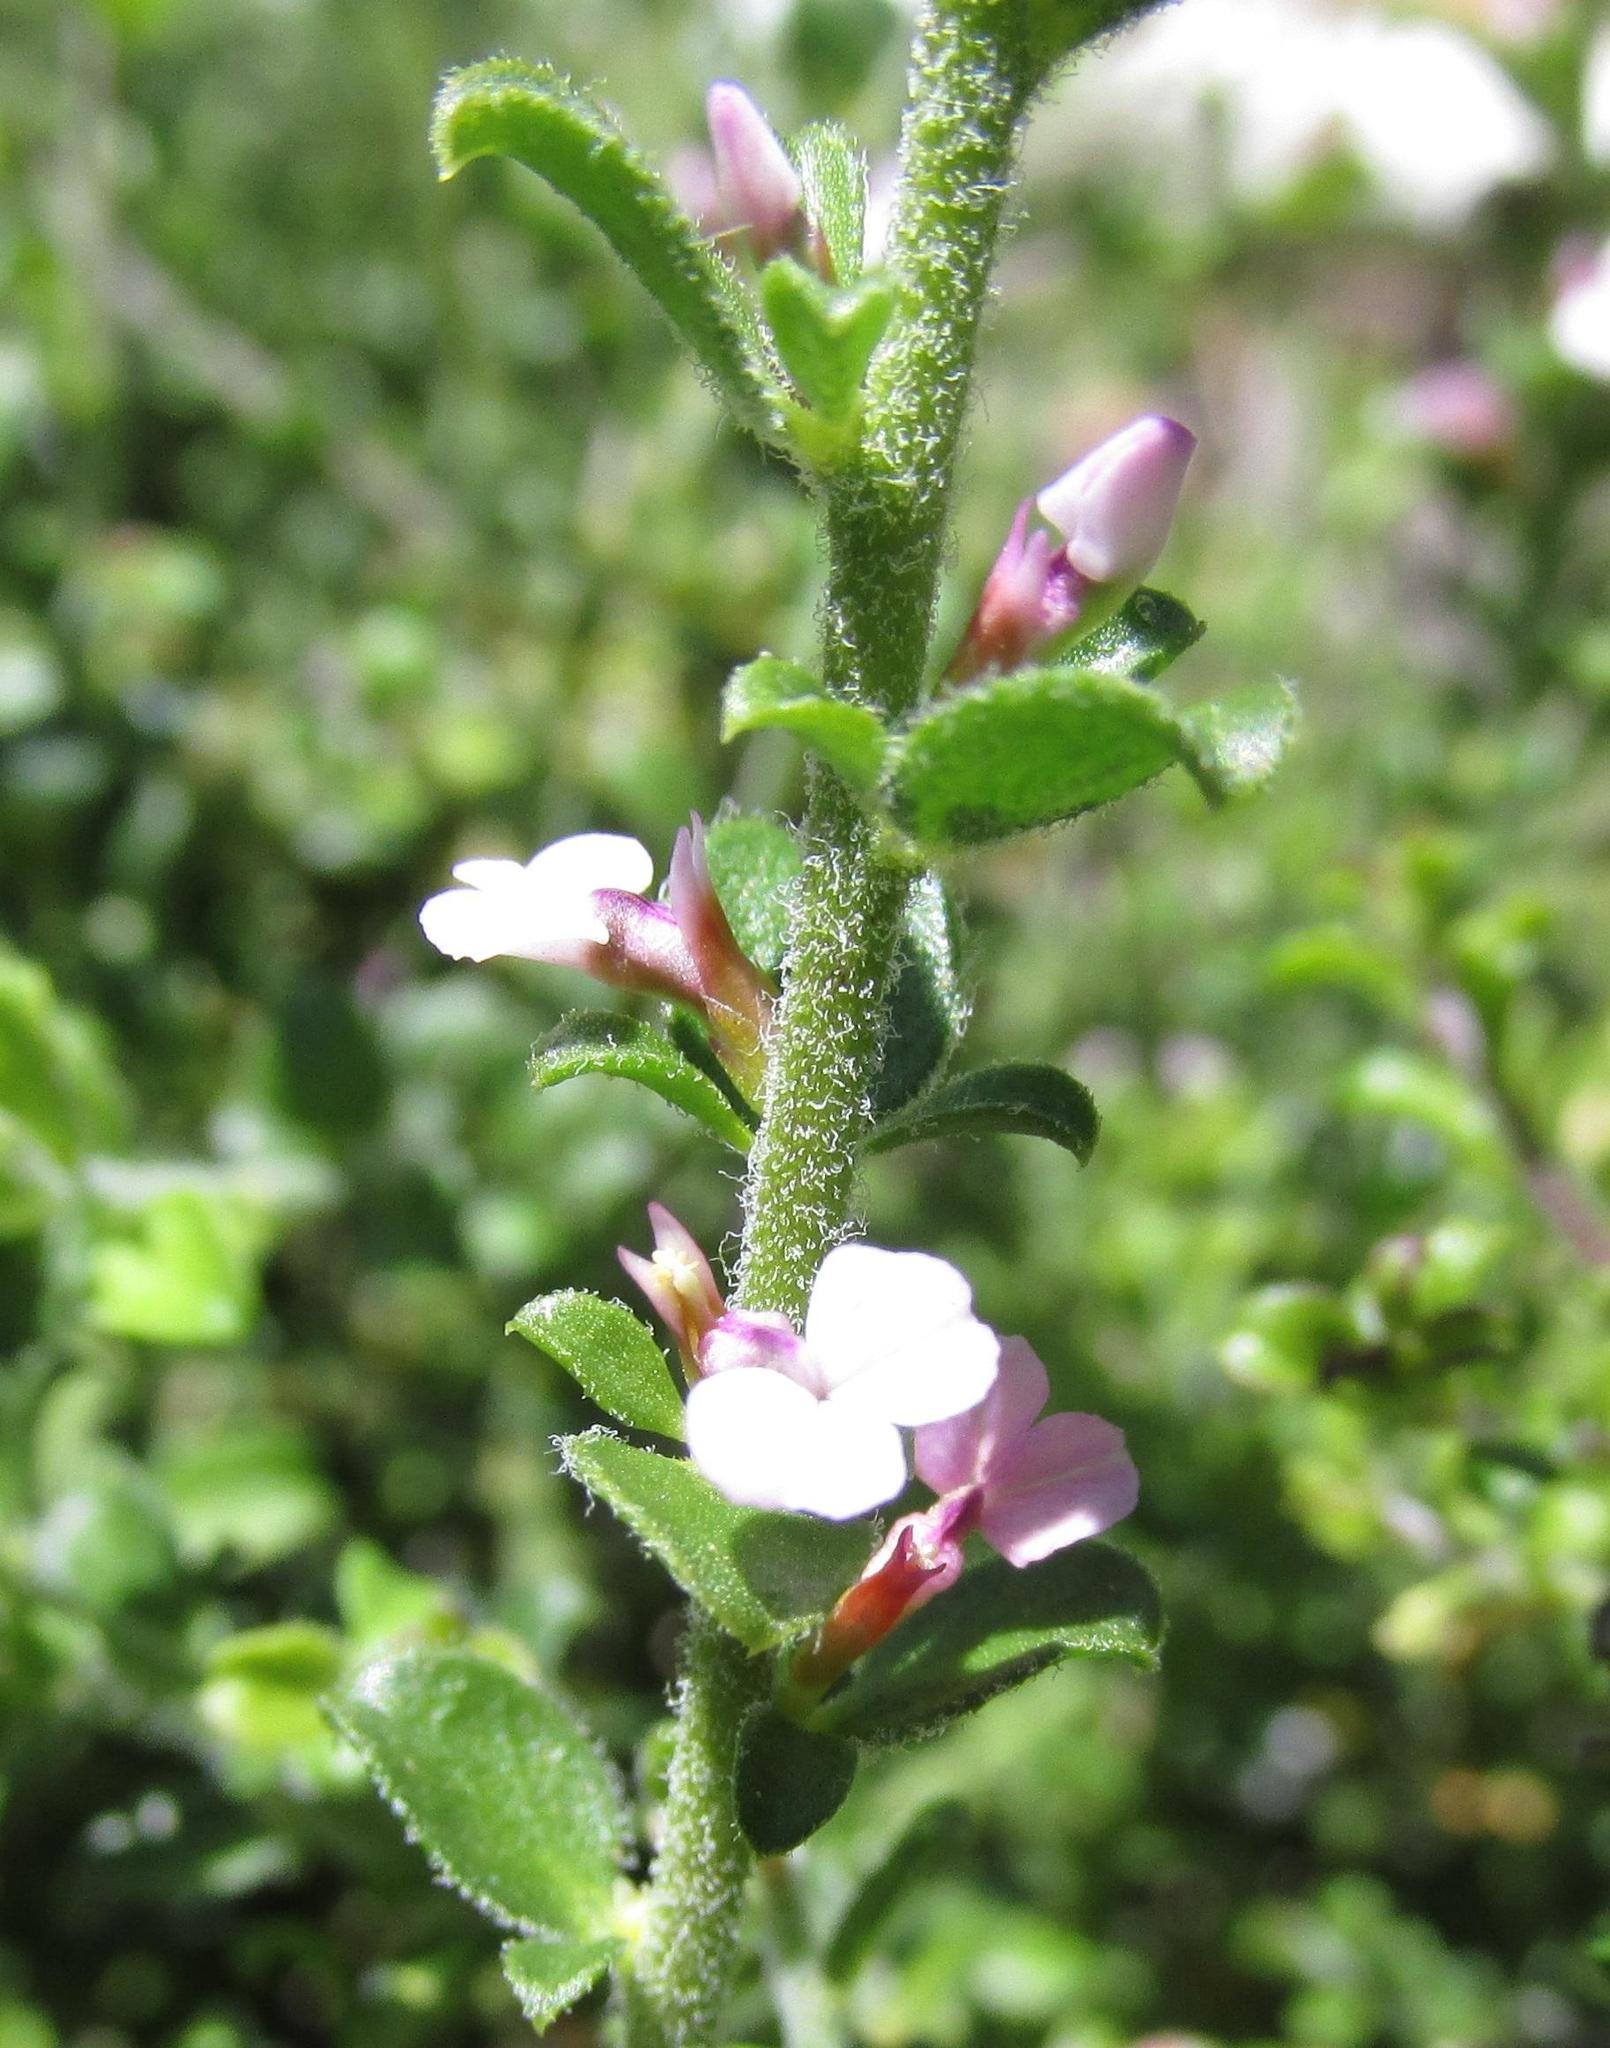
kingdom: Plantae
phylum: Tracheophyta
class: Magnoliopsida
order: Fabales
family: Polygalaceae
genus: Muraltia
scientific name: Muraltia orbicularis
